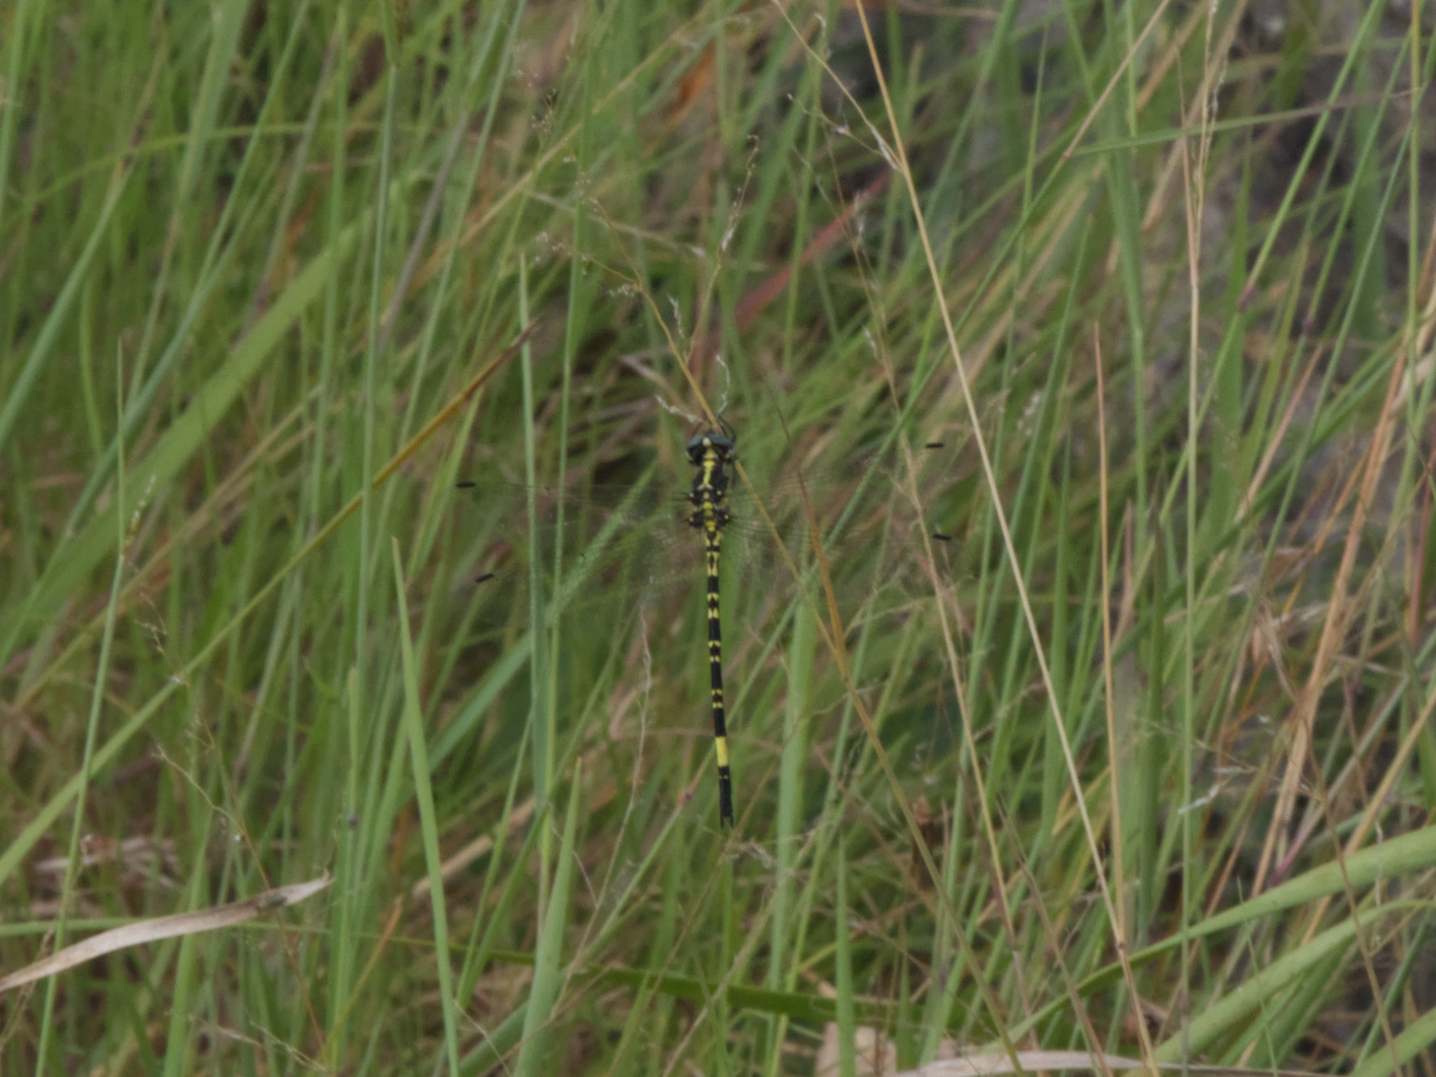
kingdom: Animalia
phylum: Arthropoda
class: Insecta
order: Odonata
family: Synthemistidae
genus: Parasynthemis
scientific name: Parasynthemis regina
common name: Royal tigertail
